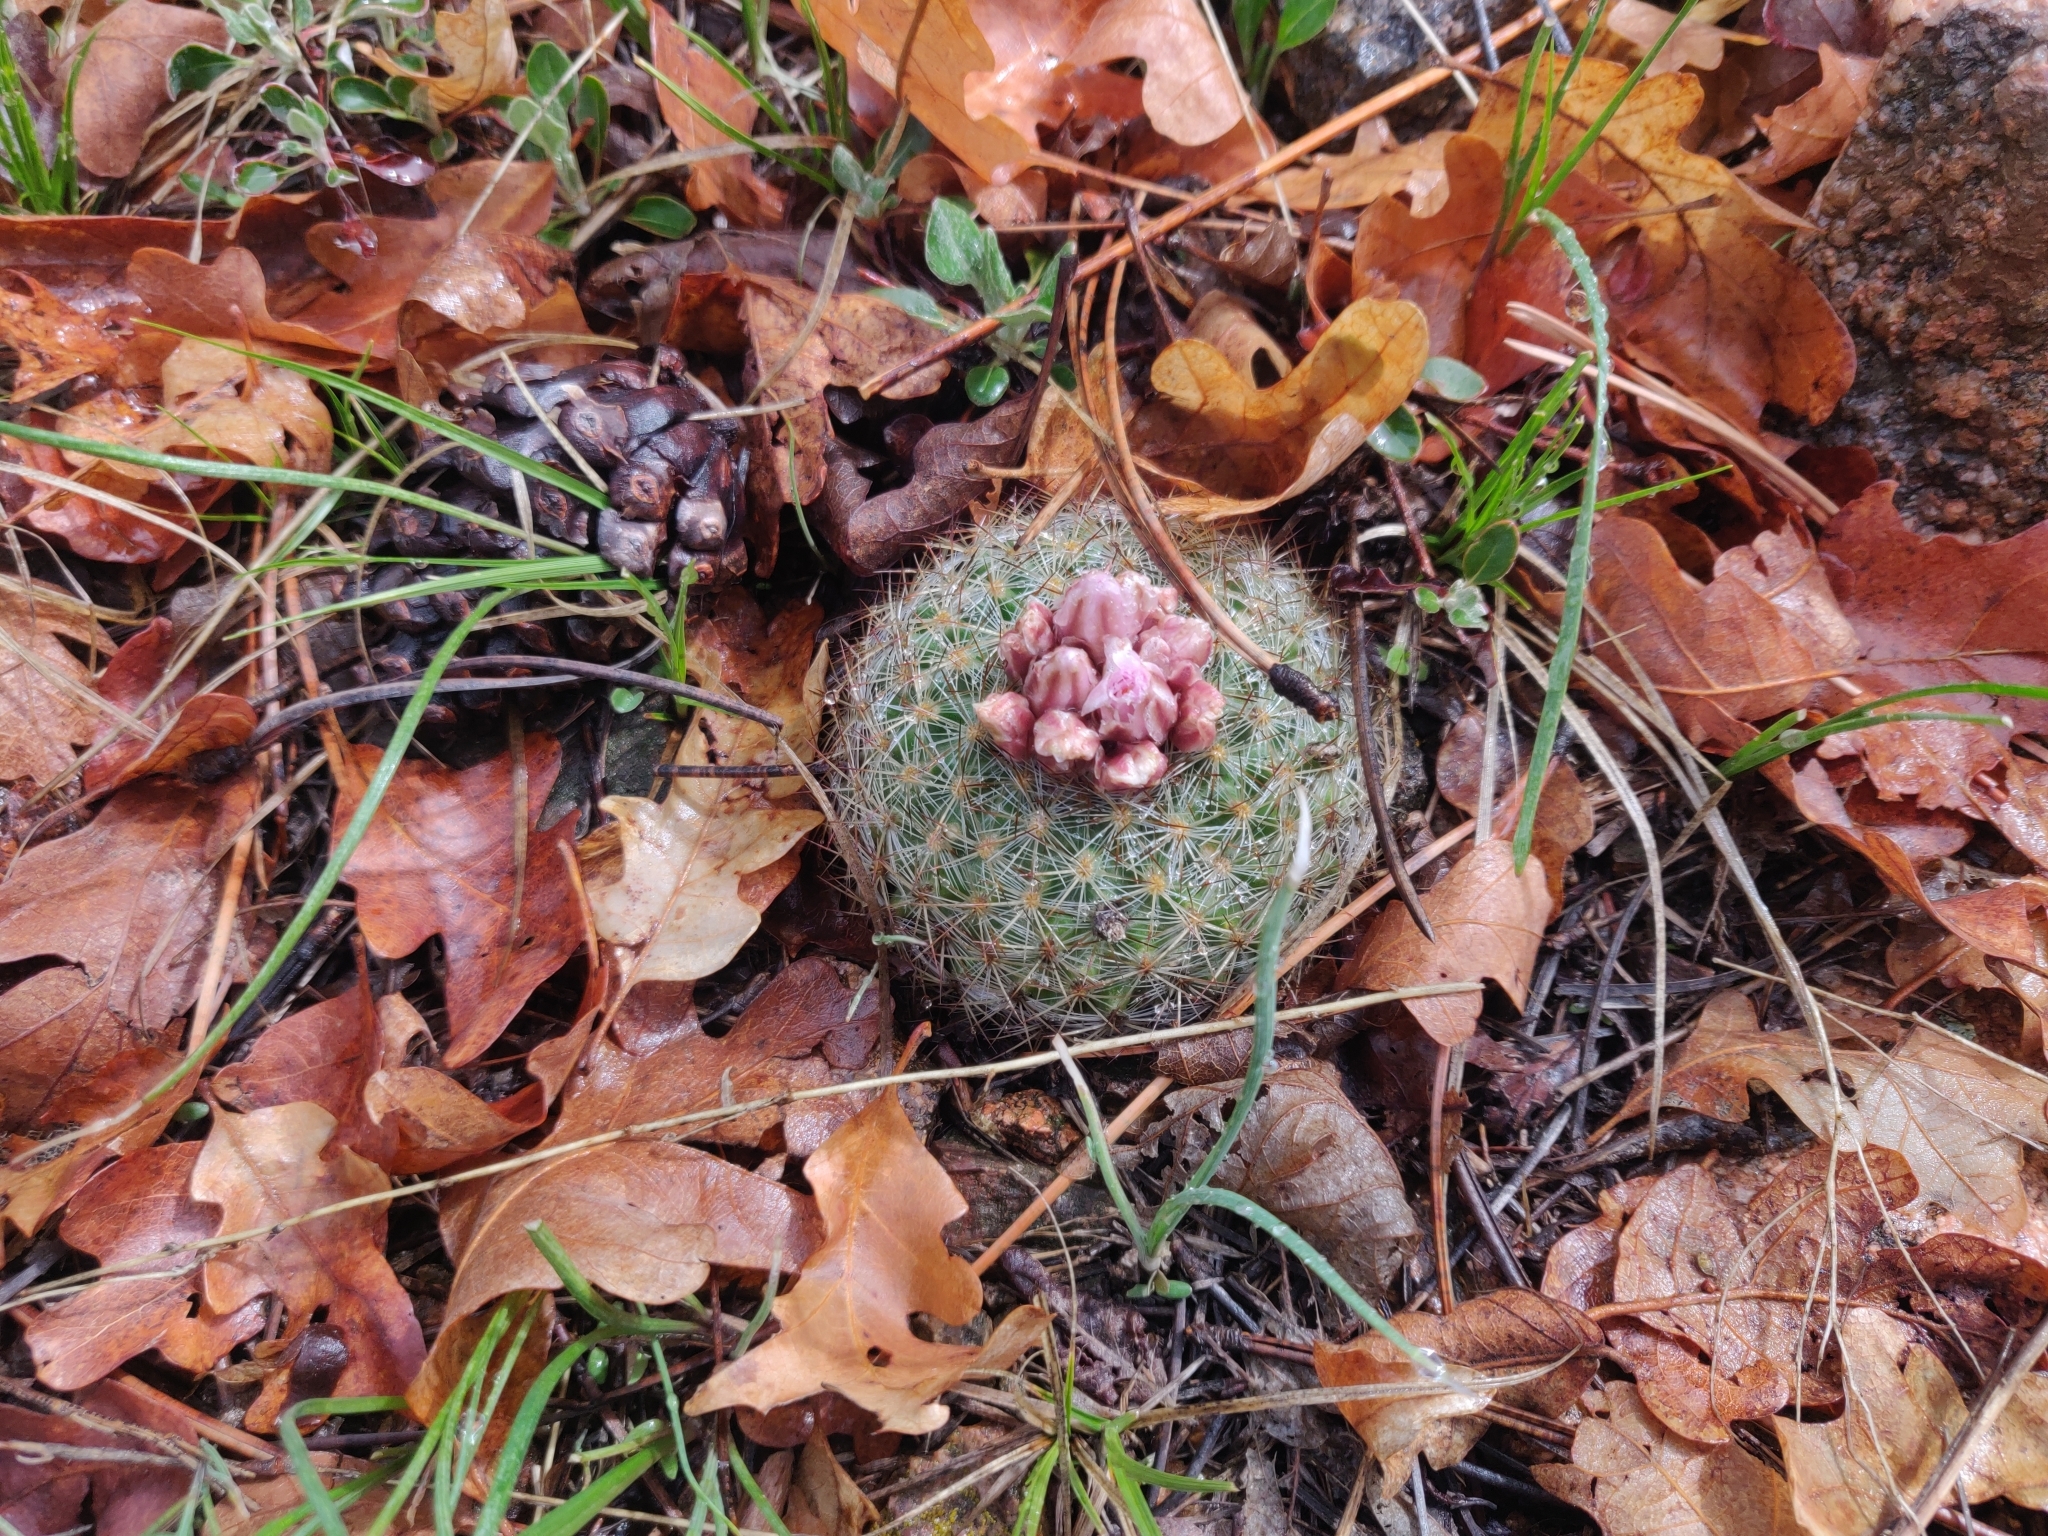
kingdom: Plantae
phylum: Tracheophyta
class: Magnoliopsida
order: Caryophyllales
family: Cactaceae
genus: Pediocactus
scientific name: Pediocactus simpsonii
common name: Simpson's hedgehog cactus
